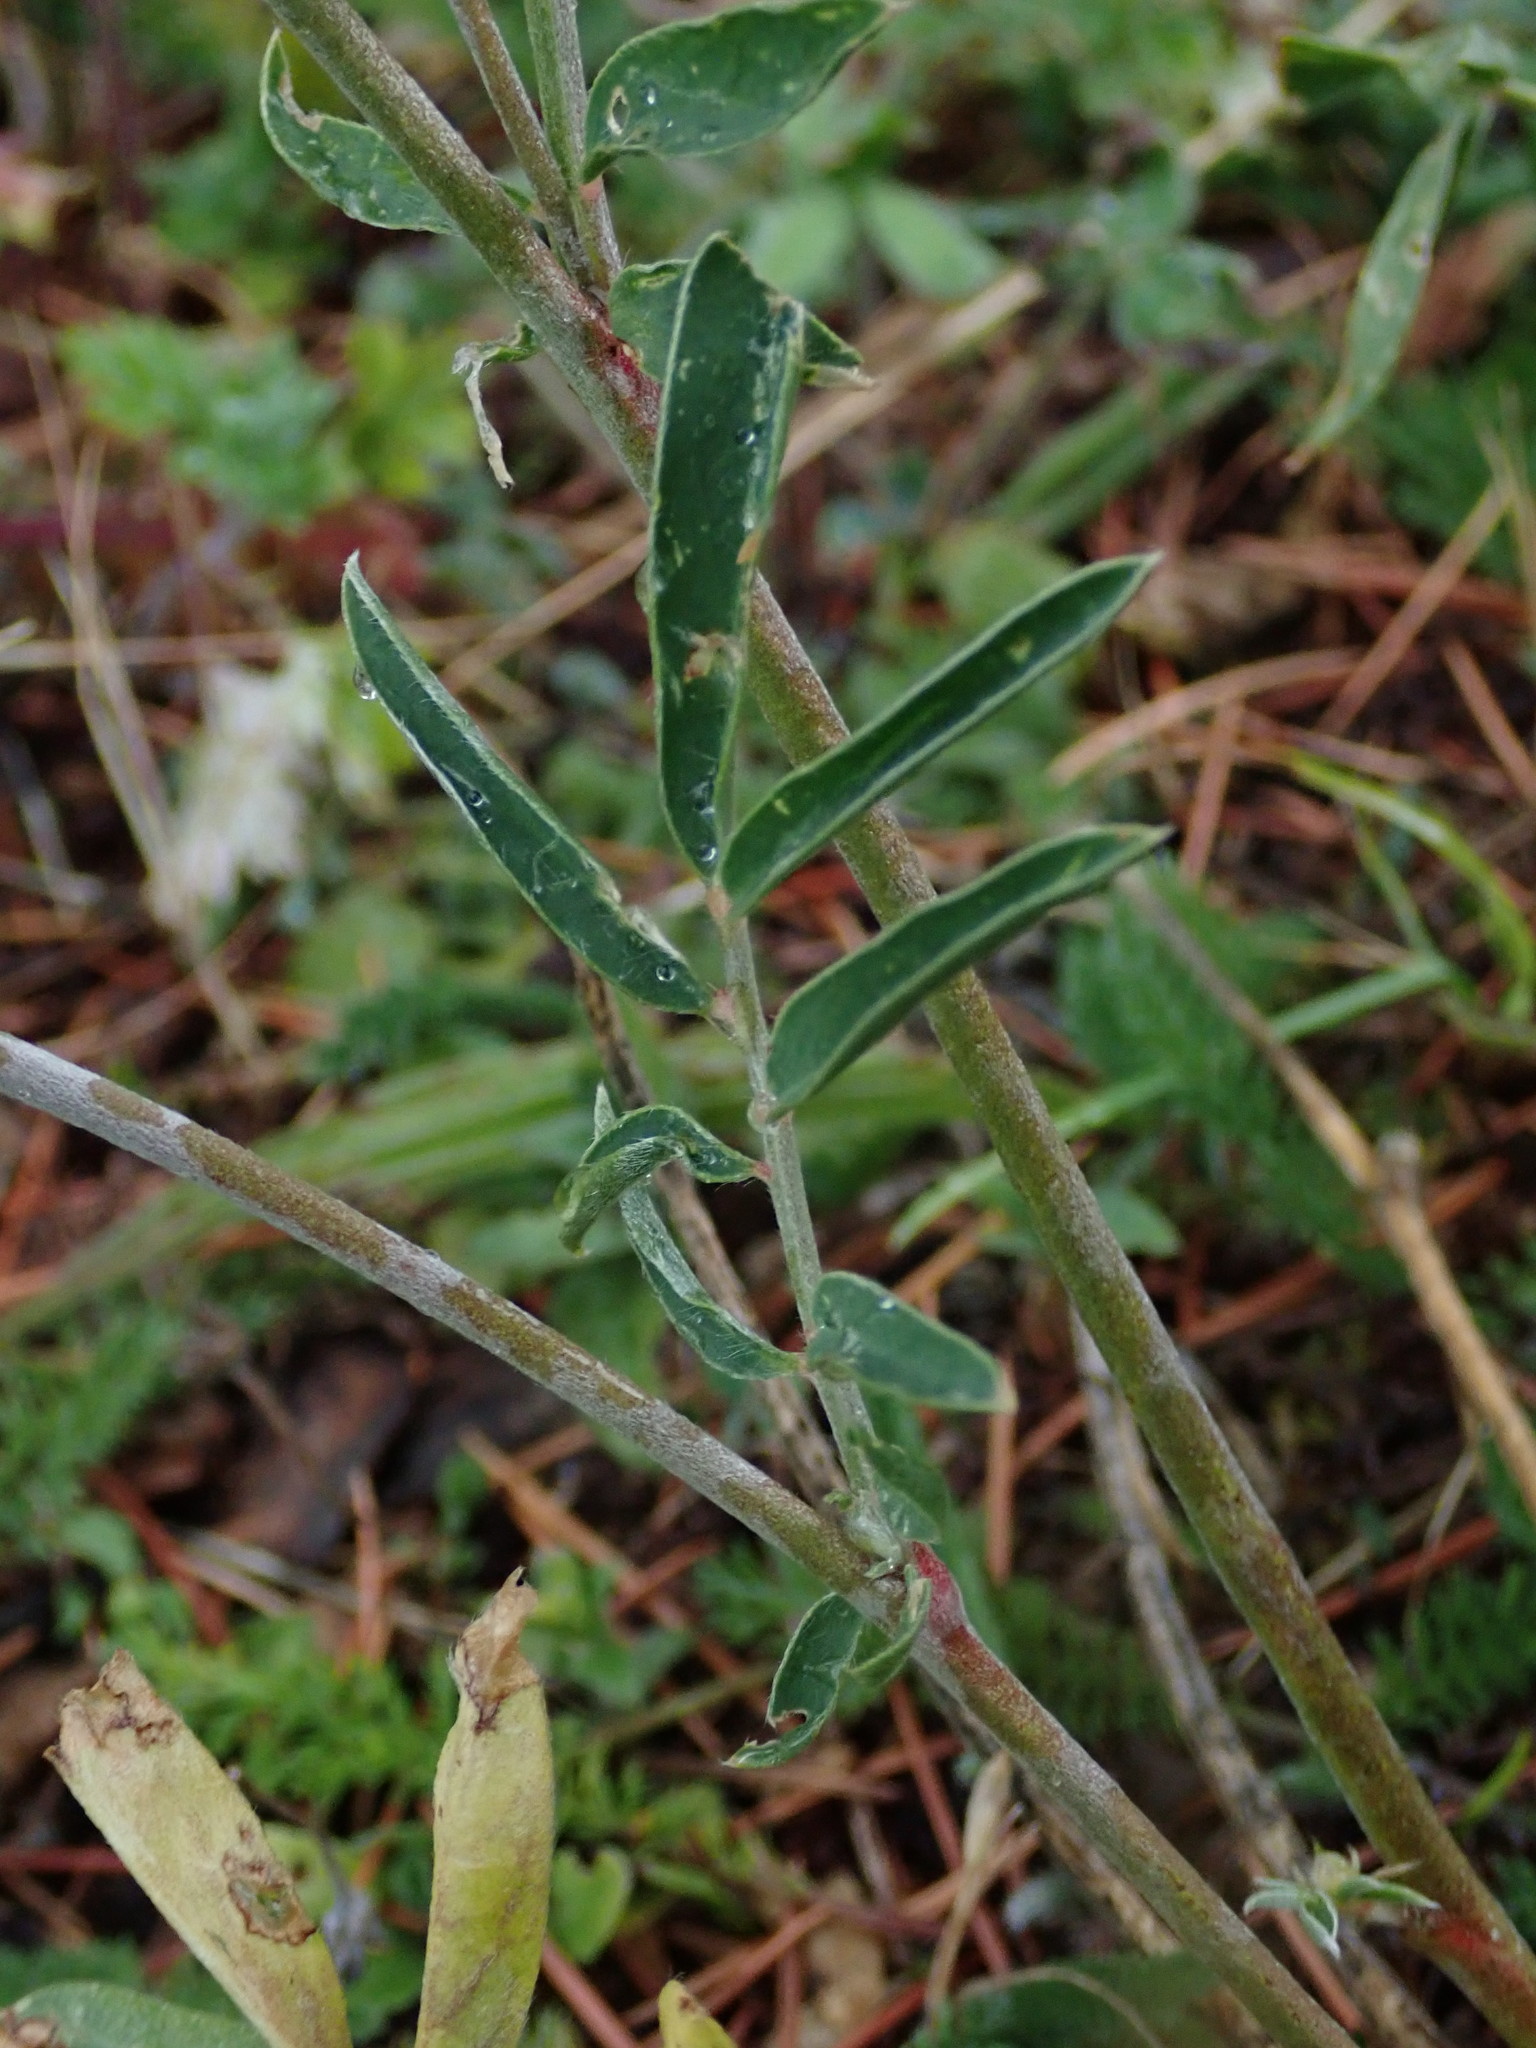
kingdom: Plantae
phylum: Tracheophyta
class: Magnoliopsida
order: Fabales
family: Fabaceae
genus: Anthyllis
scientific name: Anthyllis vulneraria
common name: Kidney vetch
